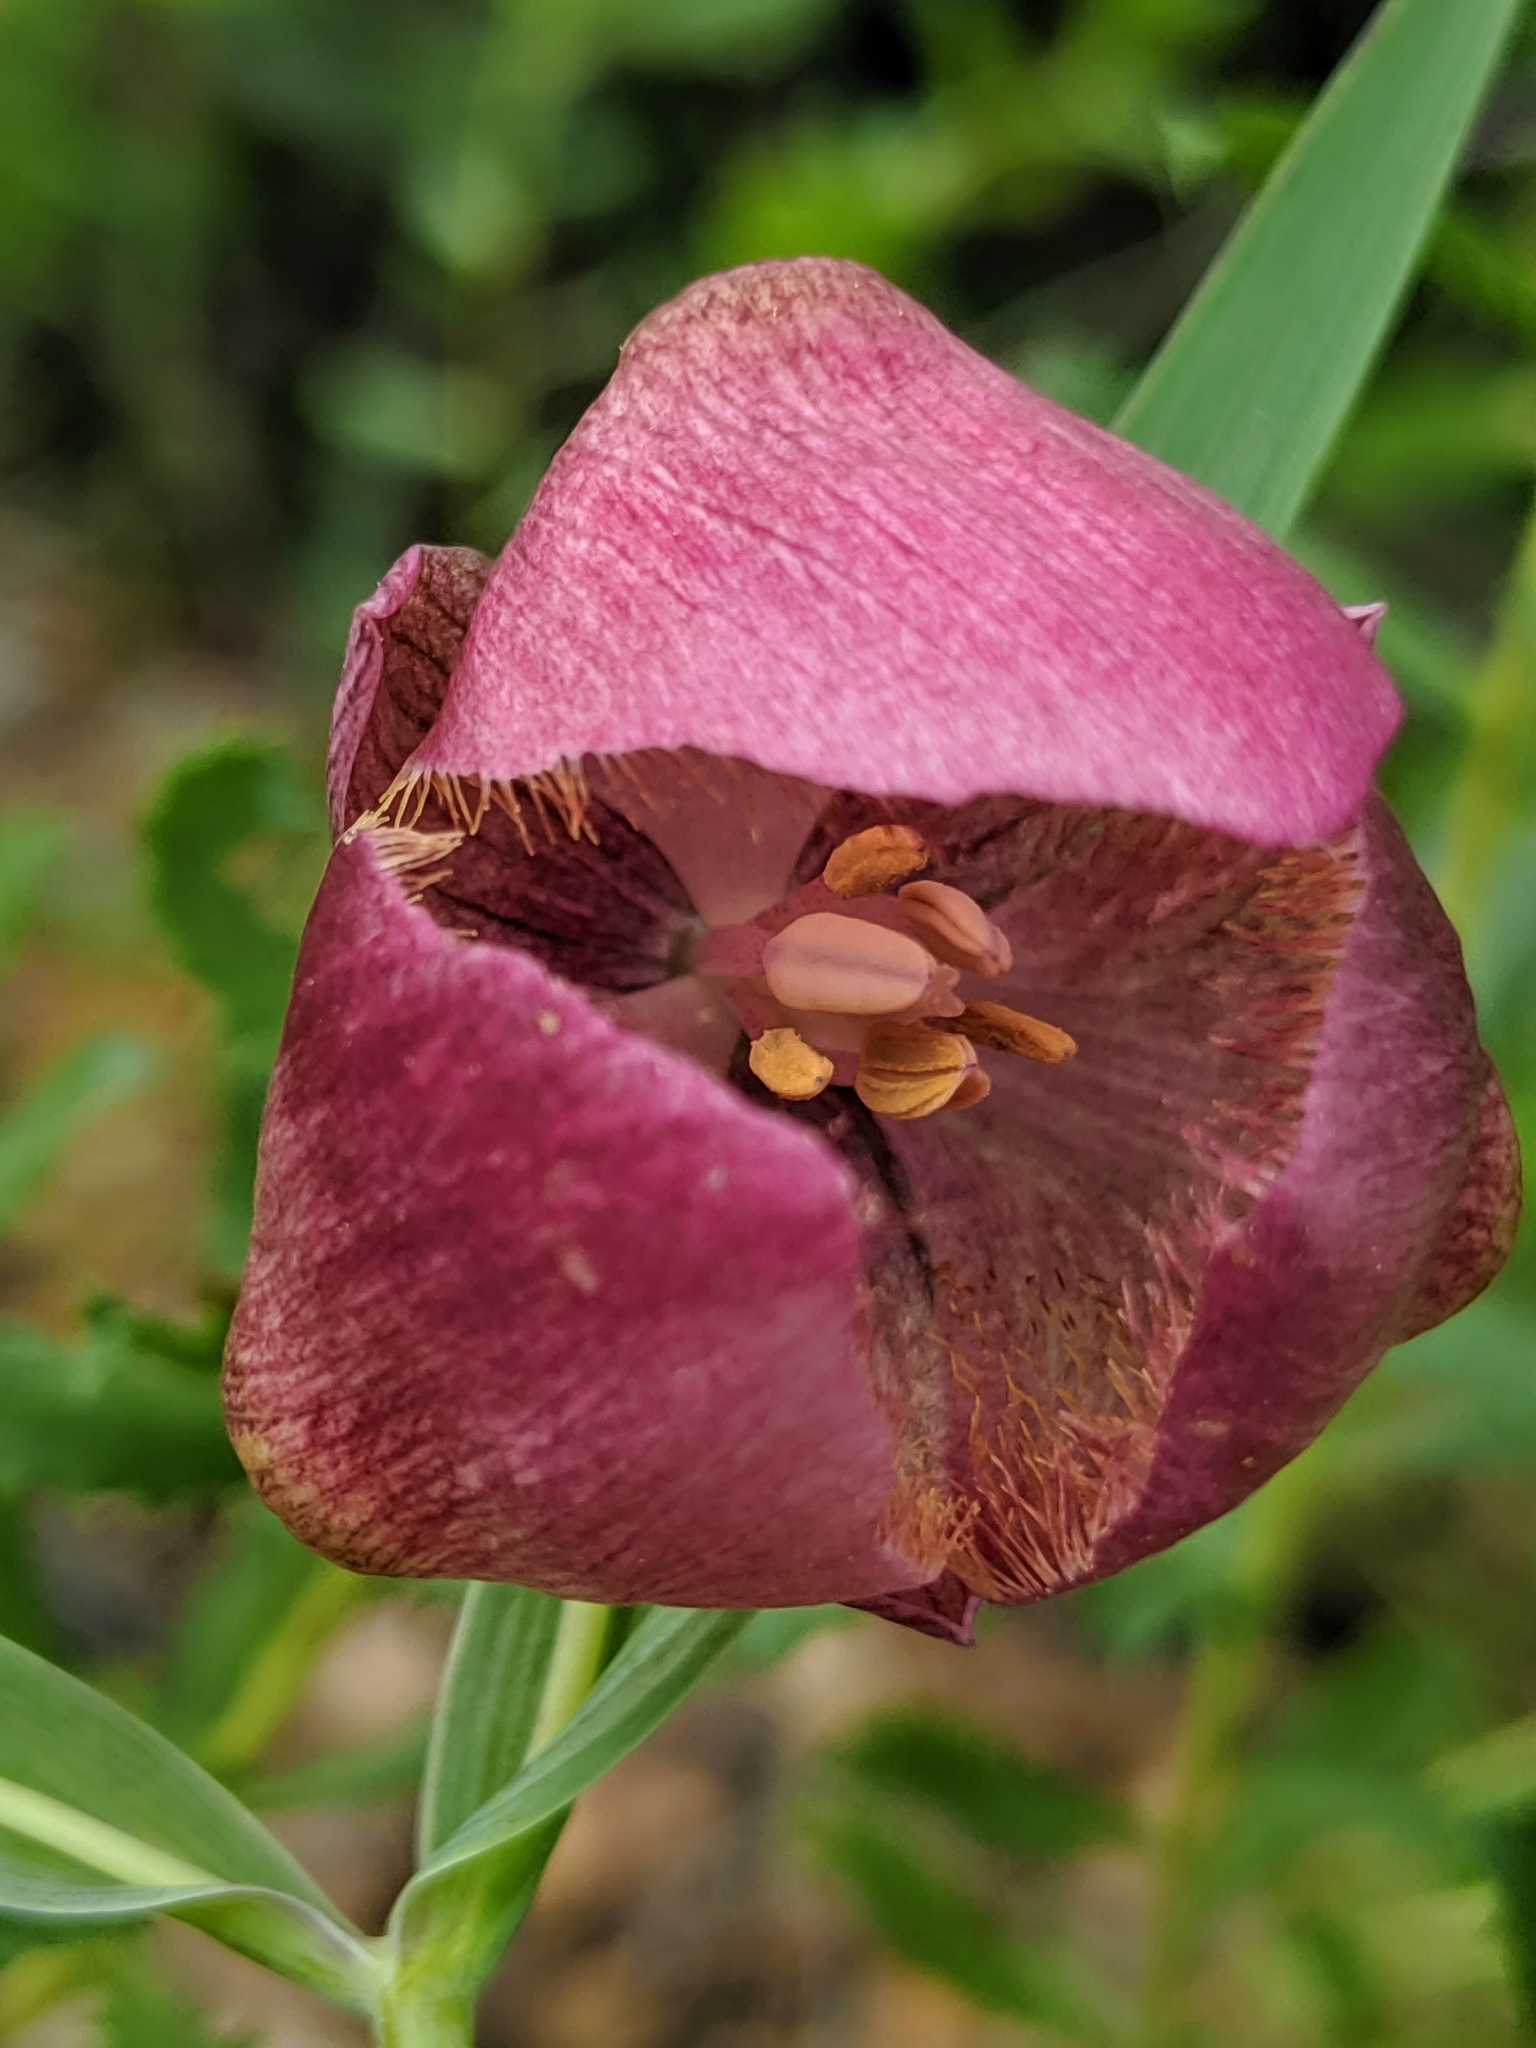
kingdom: Plantae
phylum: Tracheophyta
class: Liliopsida
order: Liliales
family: Liliaceae
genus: Calochortus
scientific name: Calochortus albus
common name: Fairy-lantern
